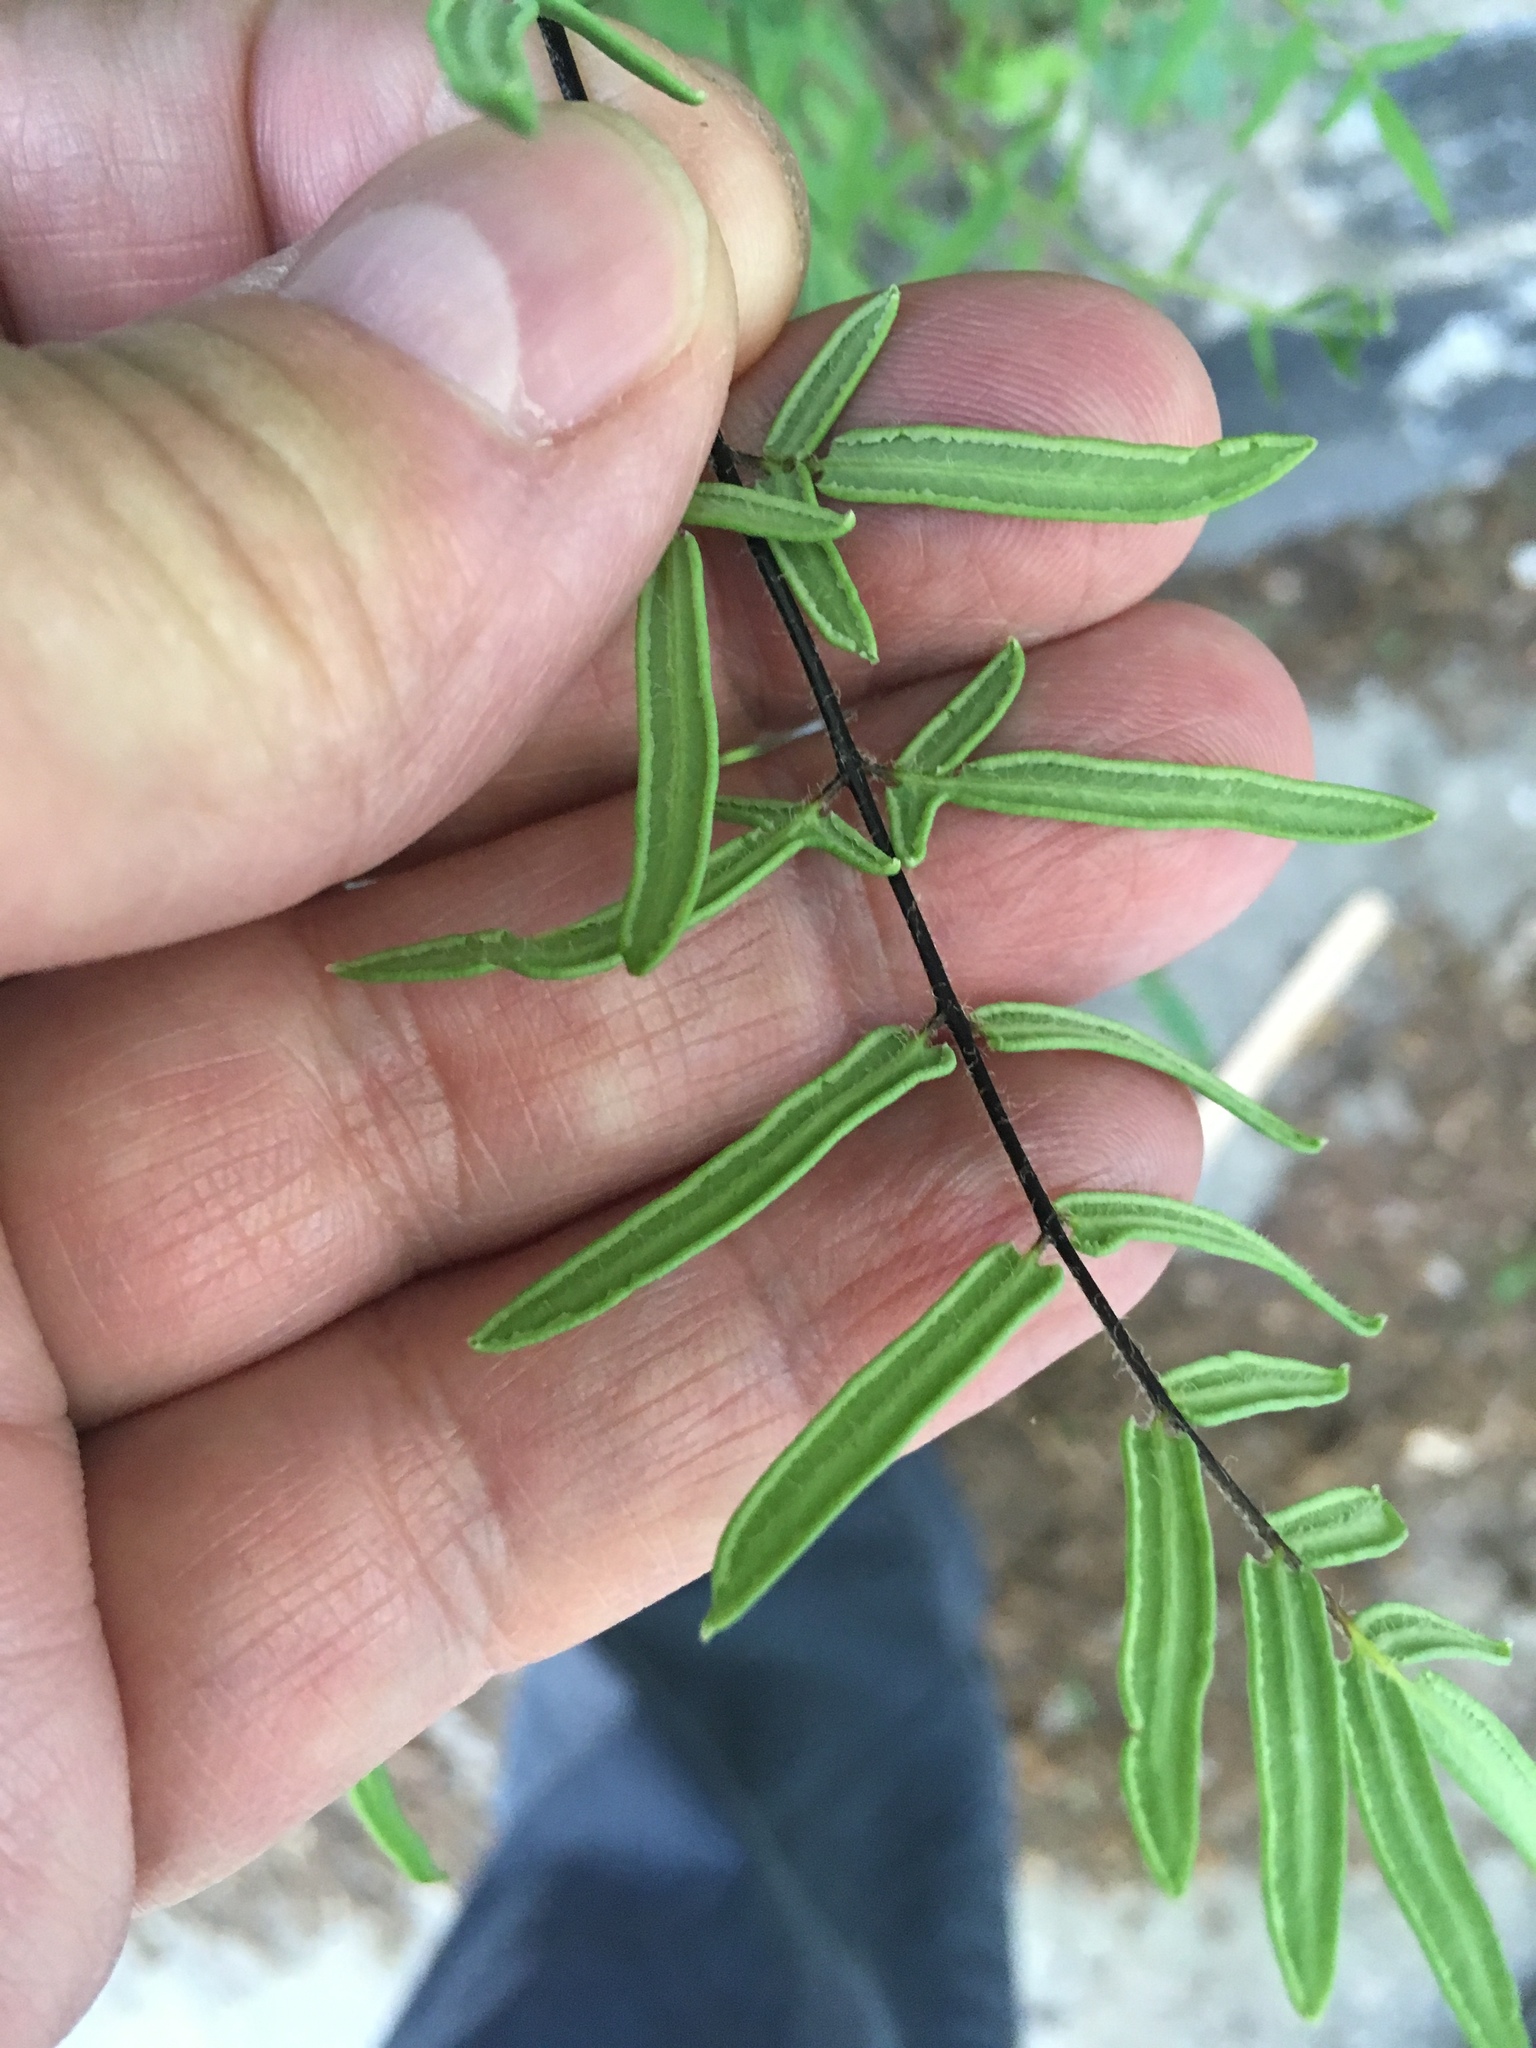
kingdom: Plantae
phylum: Tracheophyta
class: Polypodiopsida
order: Polypodiales
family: Pteridaceae
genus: Pellaea
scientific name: Pellaea atropurpurea
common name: Hairy cliffbrake
